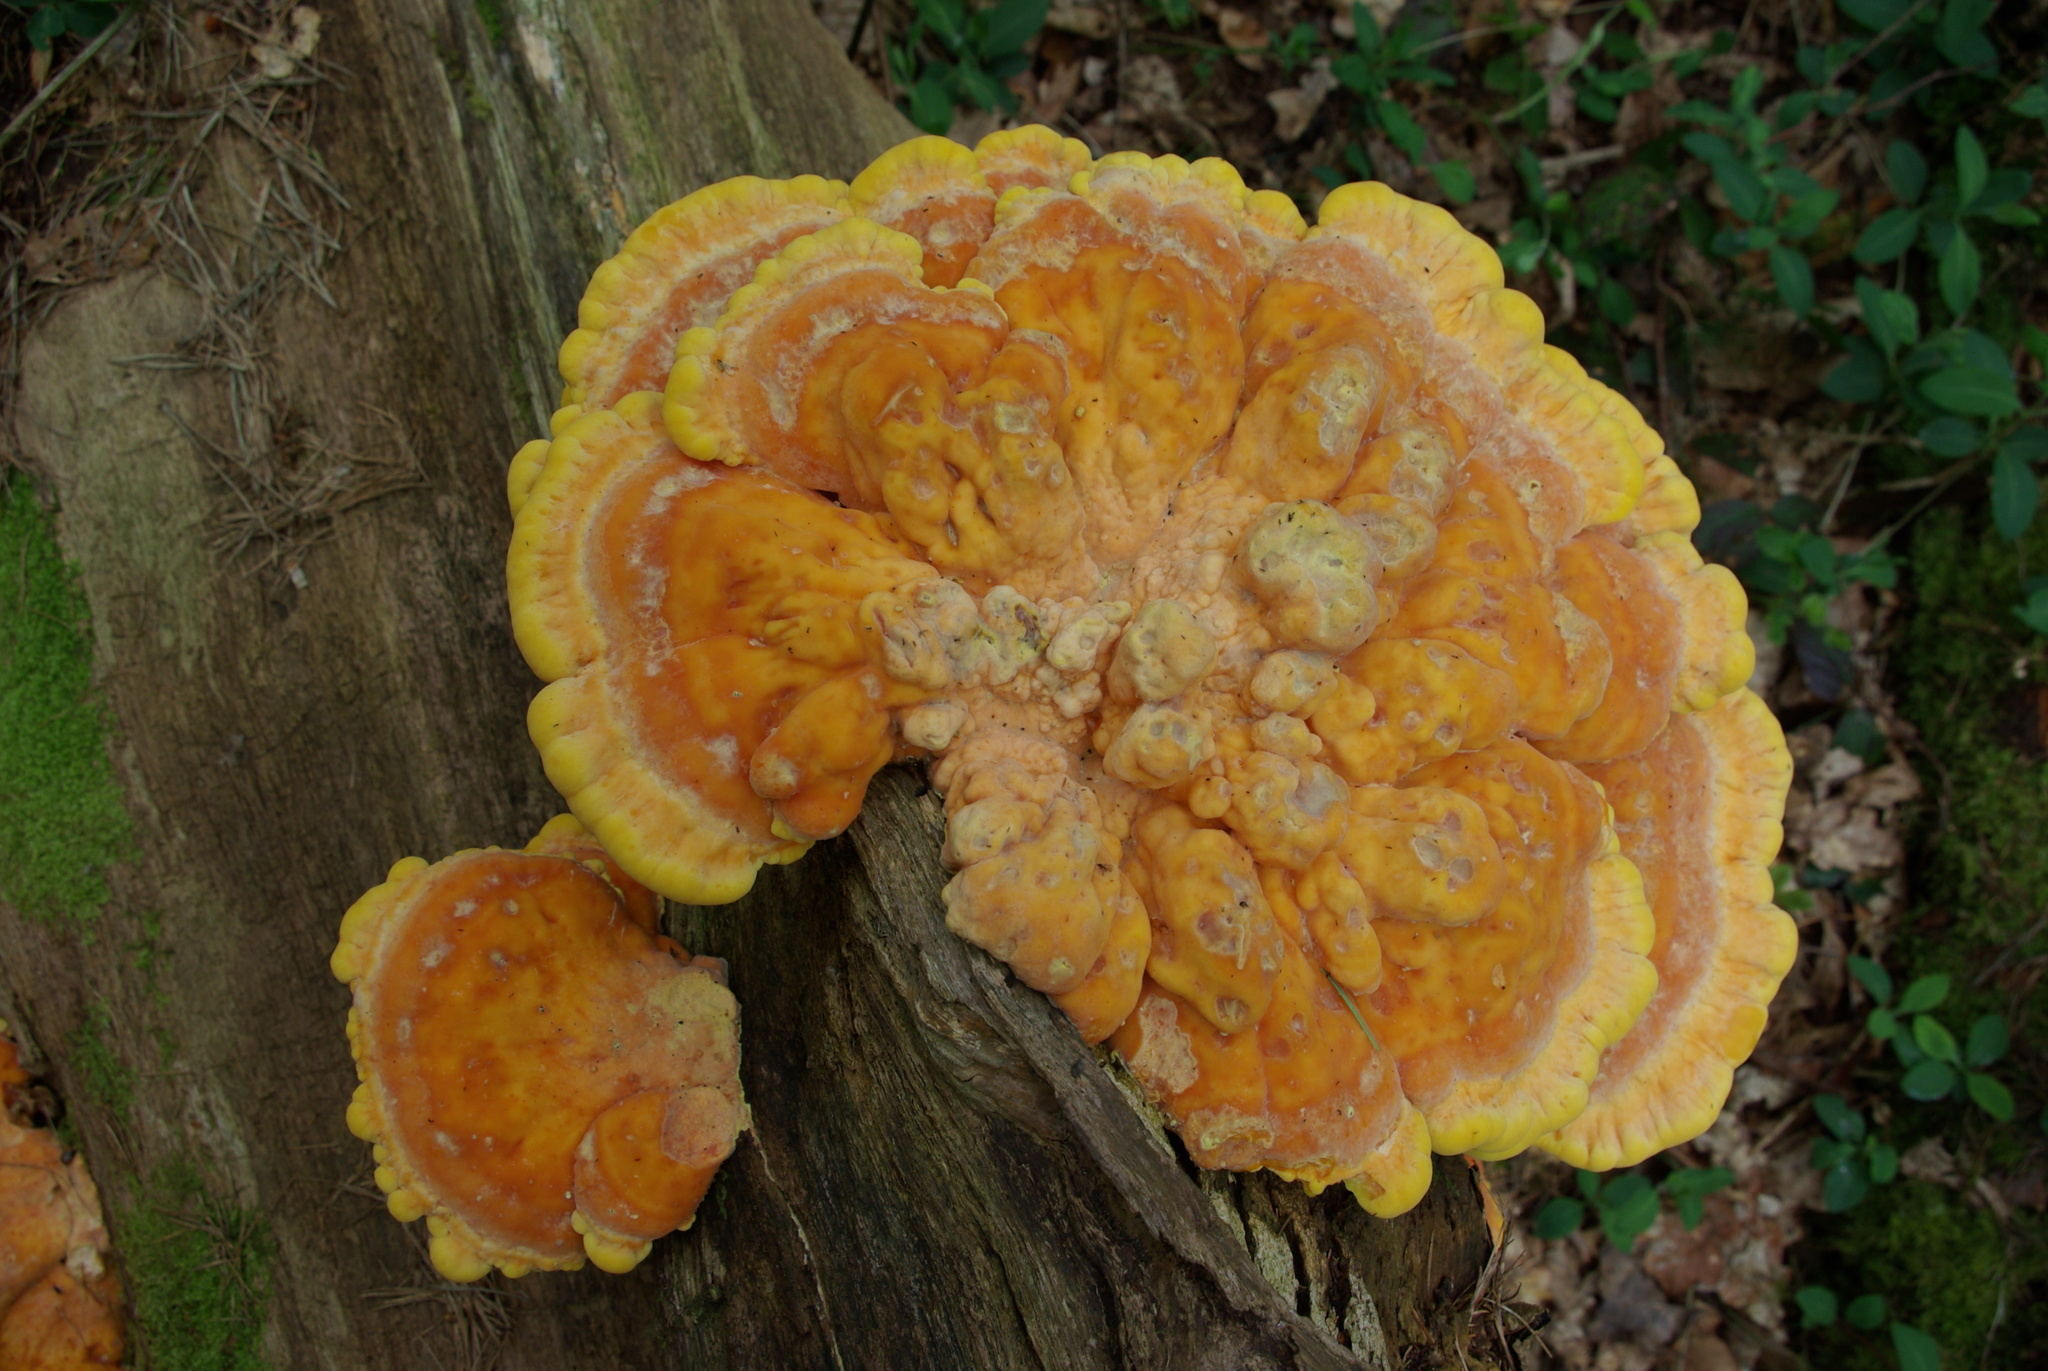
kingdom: Fungi
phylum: Basidiomycota
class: Agaricomycetes
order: Polyporales
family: Laetiporaceae
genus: Laetiporus
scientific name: Laetiporus sulphureus
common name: Chicken of the woods
